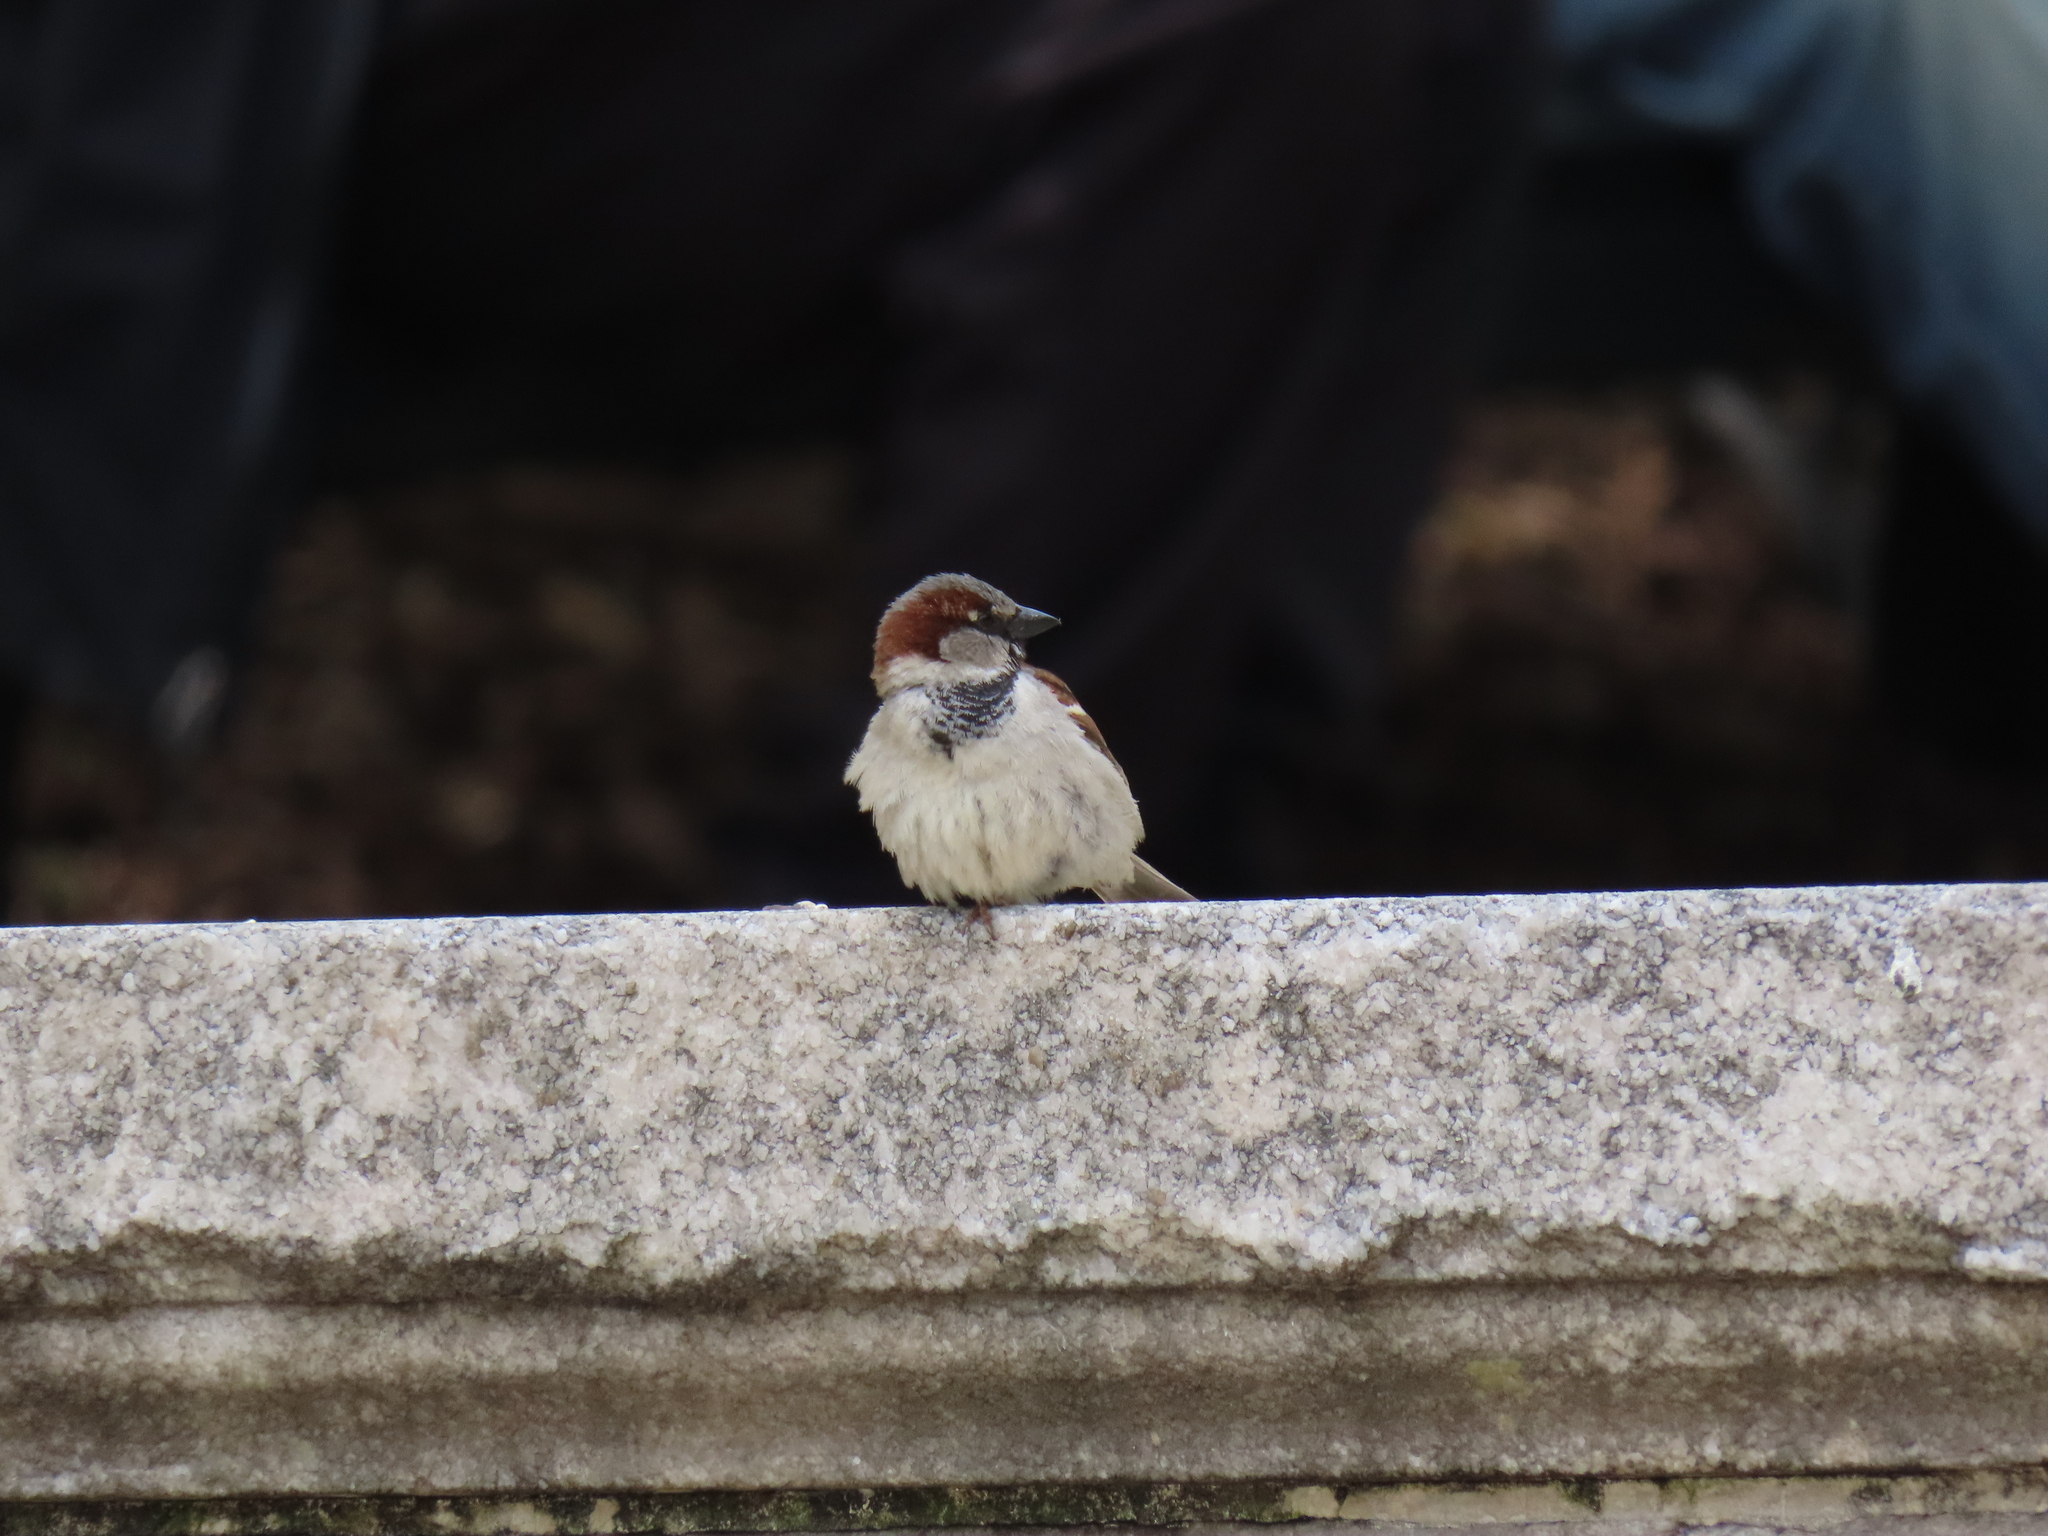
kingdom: Animalia
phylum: Chordata
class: Aves
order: Passeriformes
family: Passeridae
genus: Passer
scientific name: Passer domesticus
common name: House sparrow
